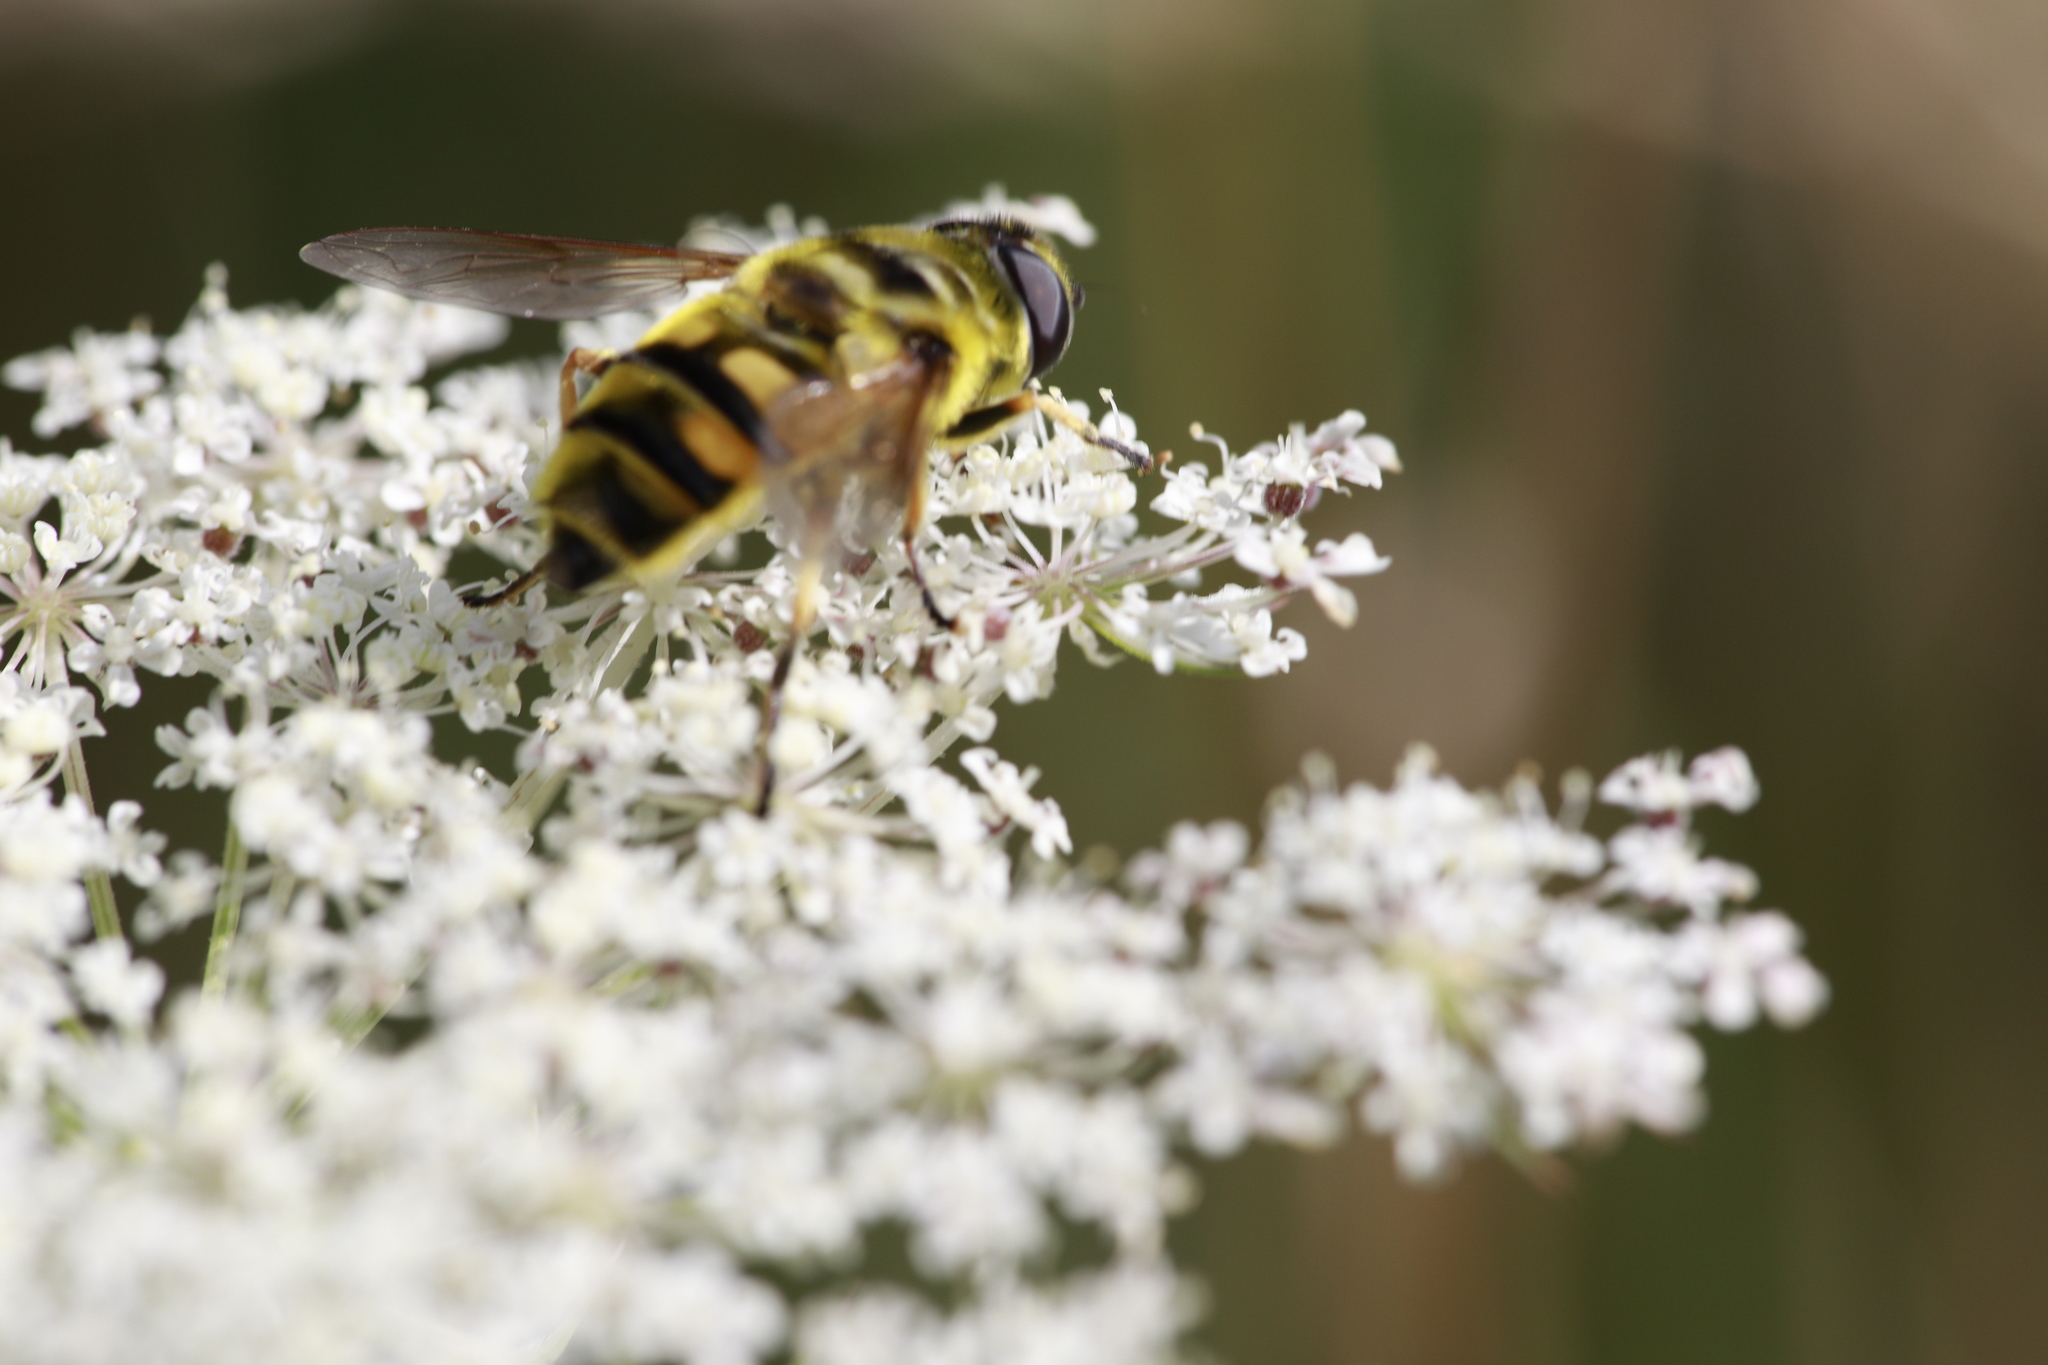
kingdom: Animalia
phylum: Arthropoda
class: Insecta
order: Diptera
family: Syrphidae
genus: Myathropa
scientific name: Myathropa florea
